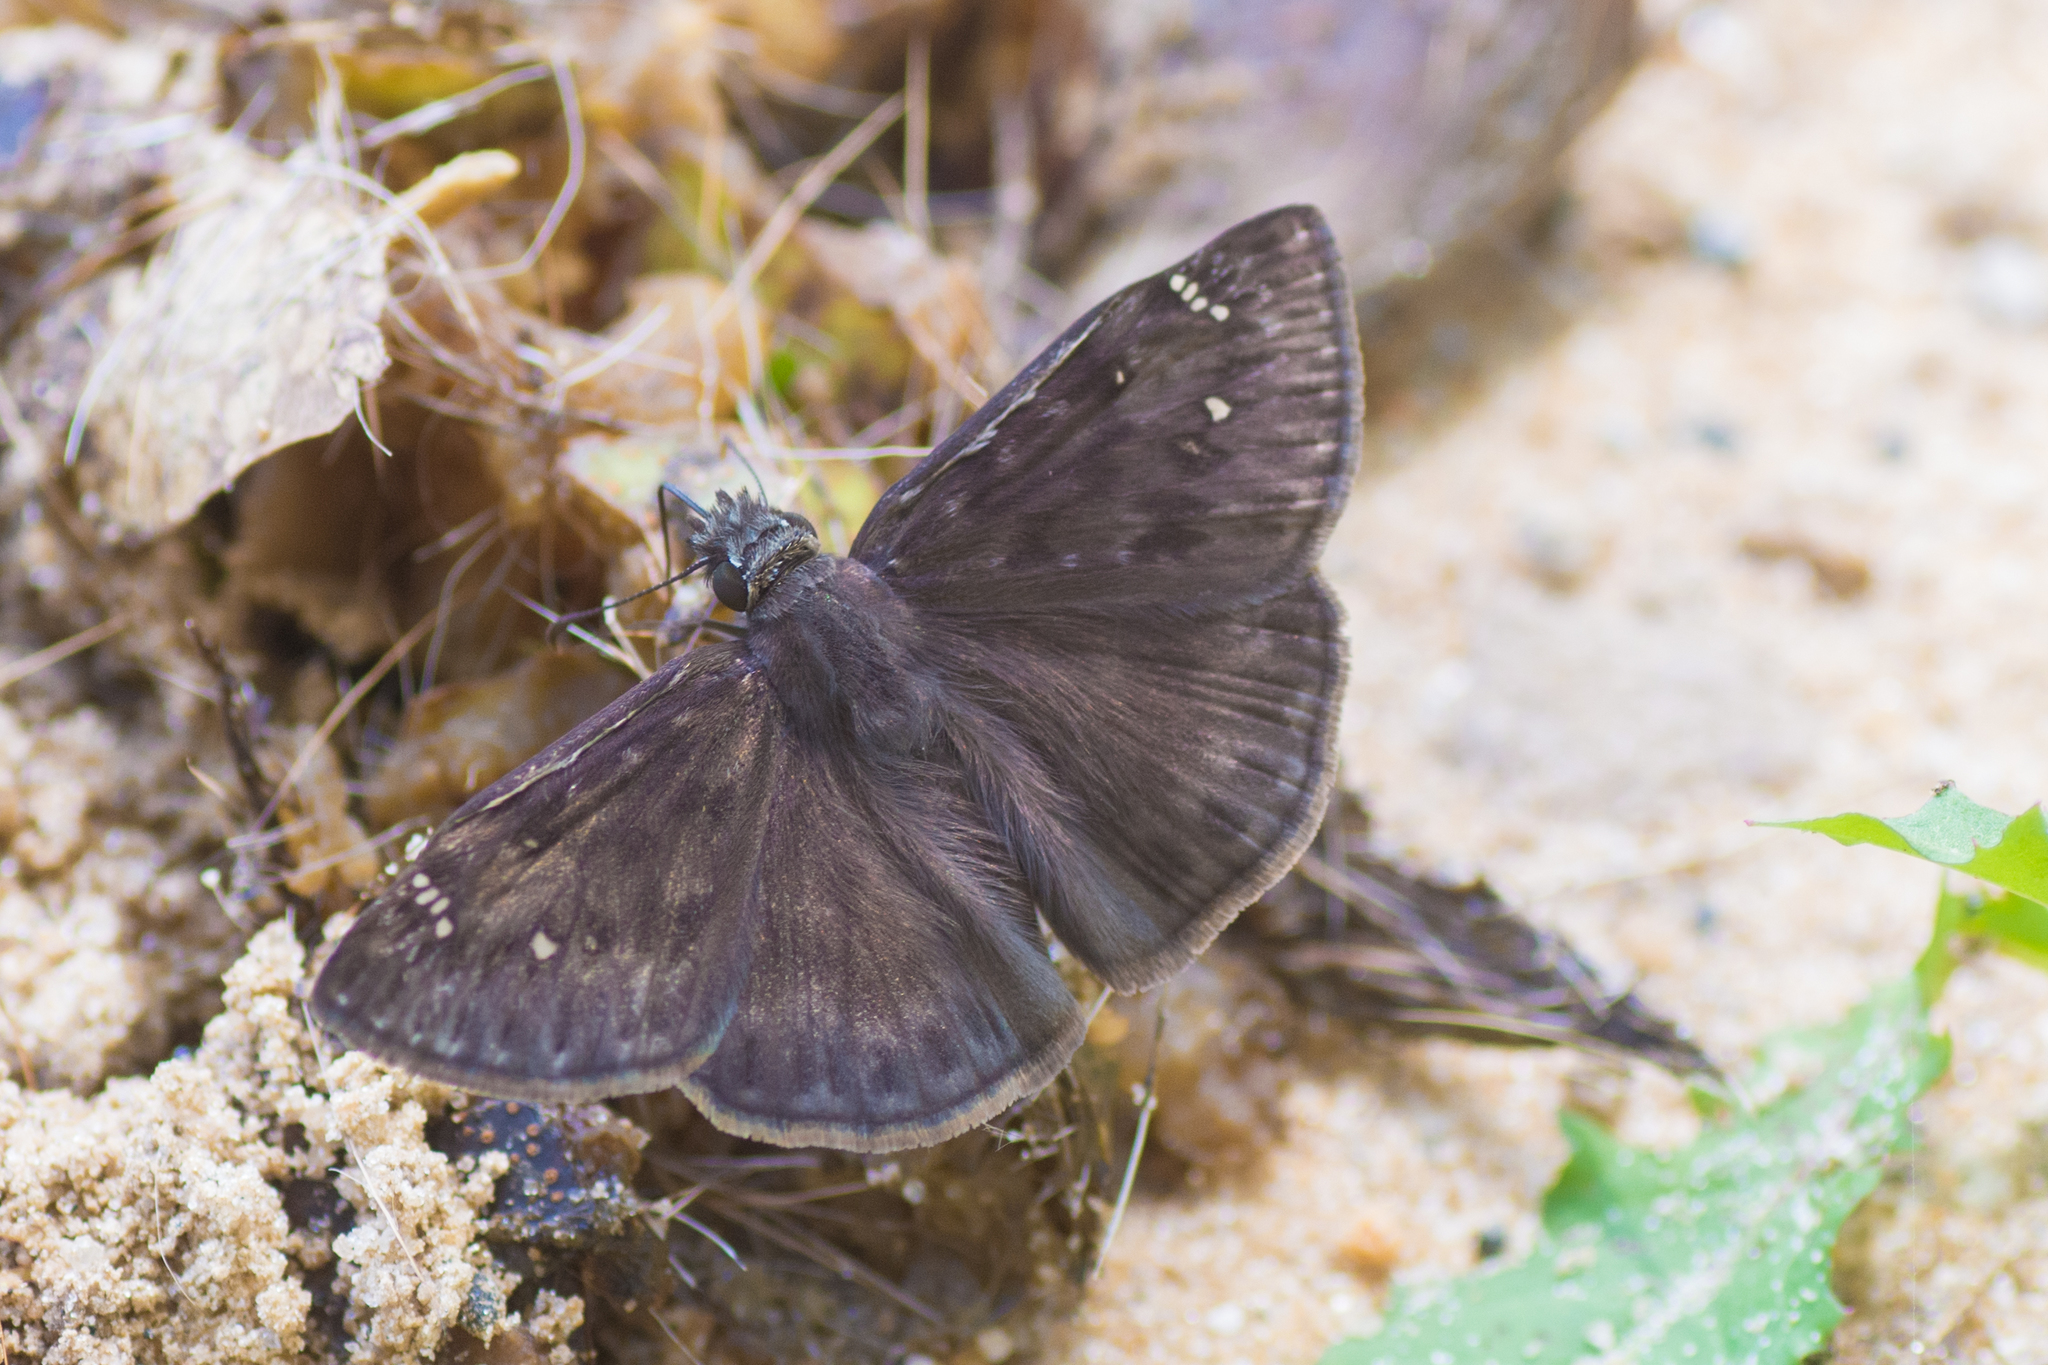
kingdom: Animalia
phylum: Arthropoda
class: Insecta
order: Lepidoptera
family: Hesperiidae
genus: Erynnis
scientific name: Erynnis horatius
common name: Horace's duskywing
